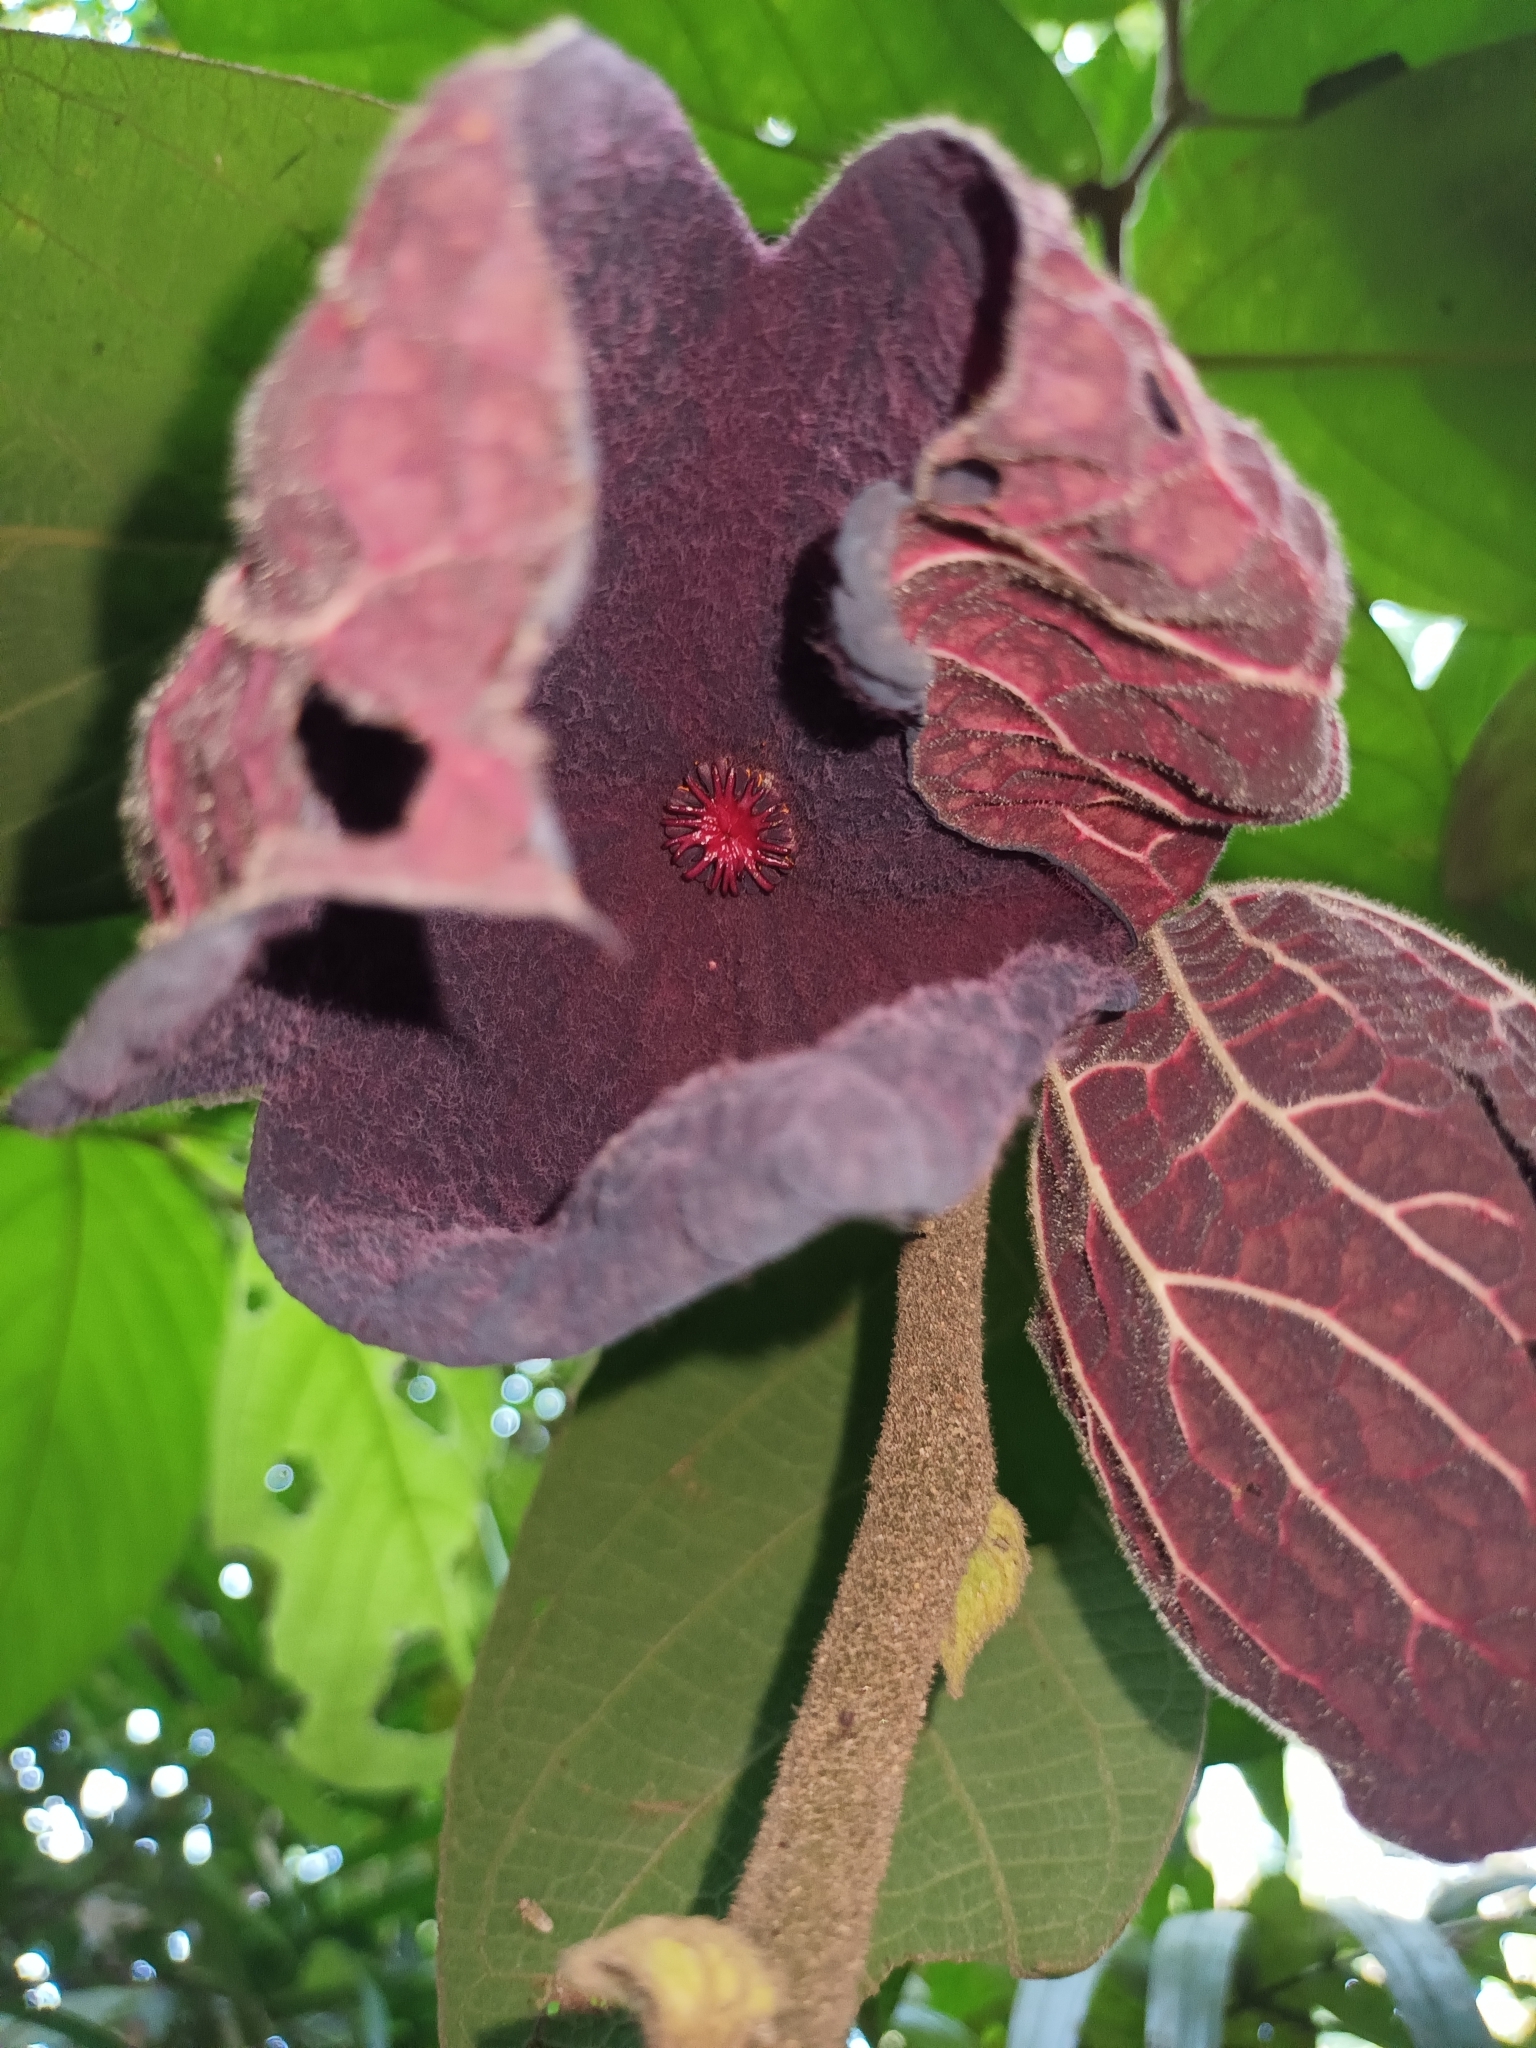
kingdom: Plantae
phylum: Tracheophyta
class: Magnoliopsida
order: Piperales
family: Aristolochiaceae
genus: Thottea
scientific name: Thottea grandiflora
